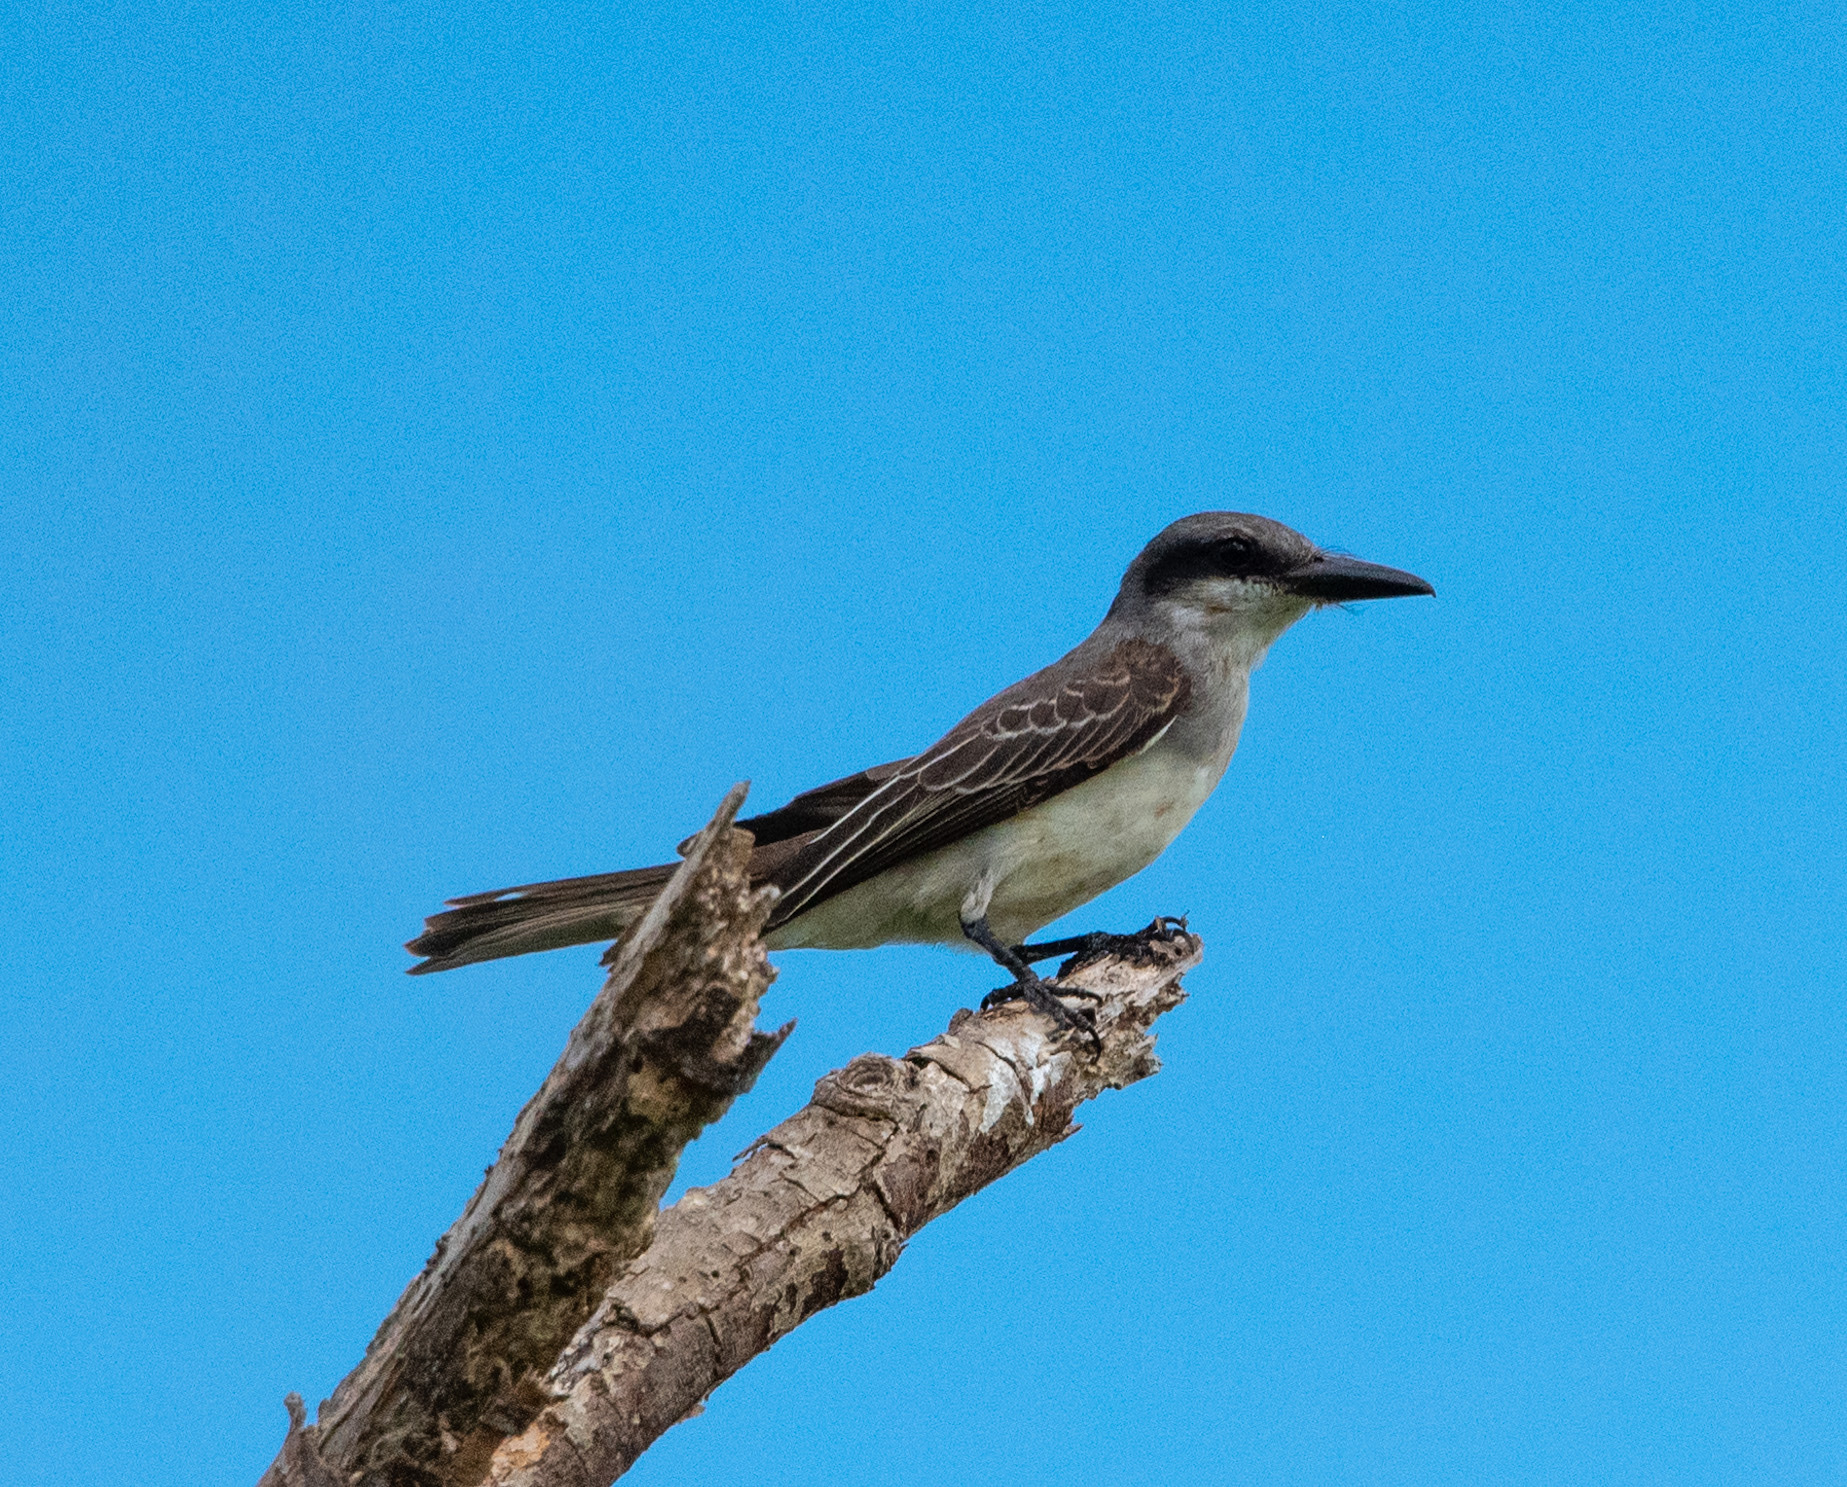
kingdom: Animalia
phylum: Chordata
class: Aves
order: Passeriformes
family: Tyrannidae
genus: Tyrannus
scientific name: Tyrannus dominicensis
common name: Gray kingbird
